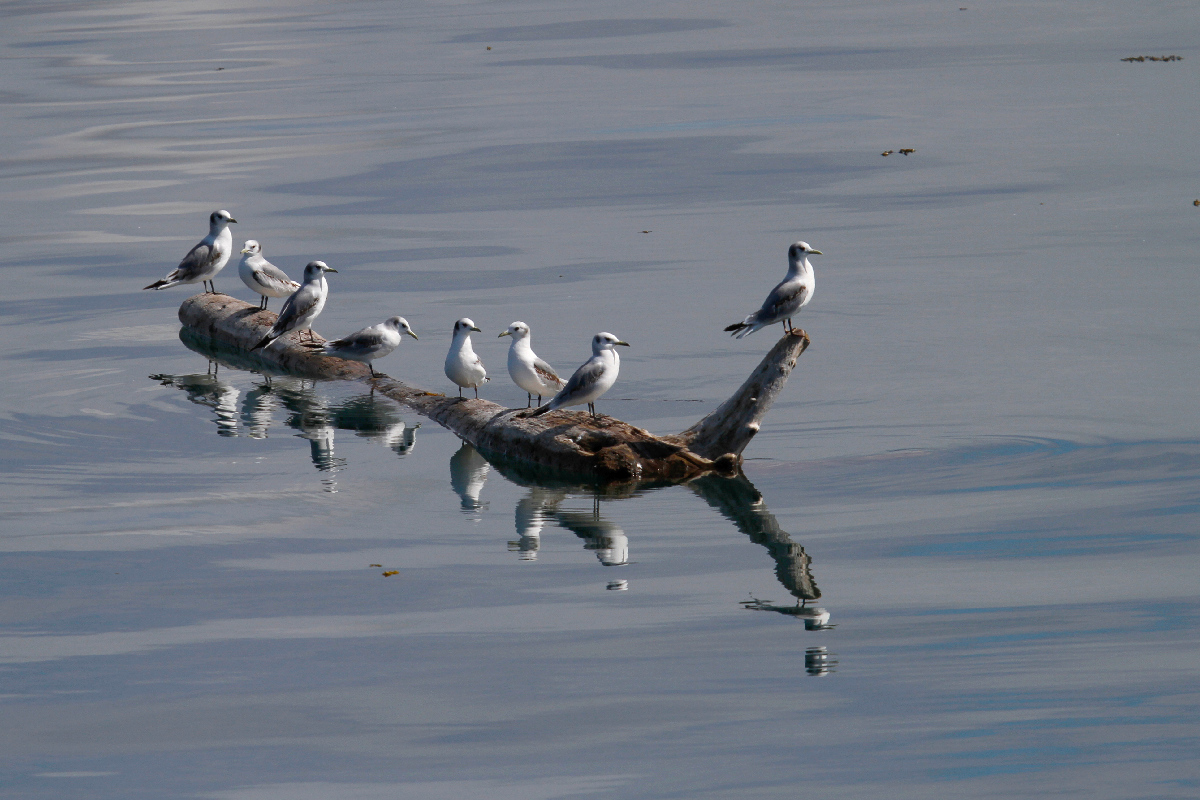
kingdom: Animalia
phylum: Chordata
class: Aves
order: Charadriiformes
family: Laridae
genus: Rissa
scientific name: Rissa tridactyla
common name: Black-legged kittiwake
